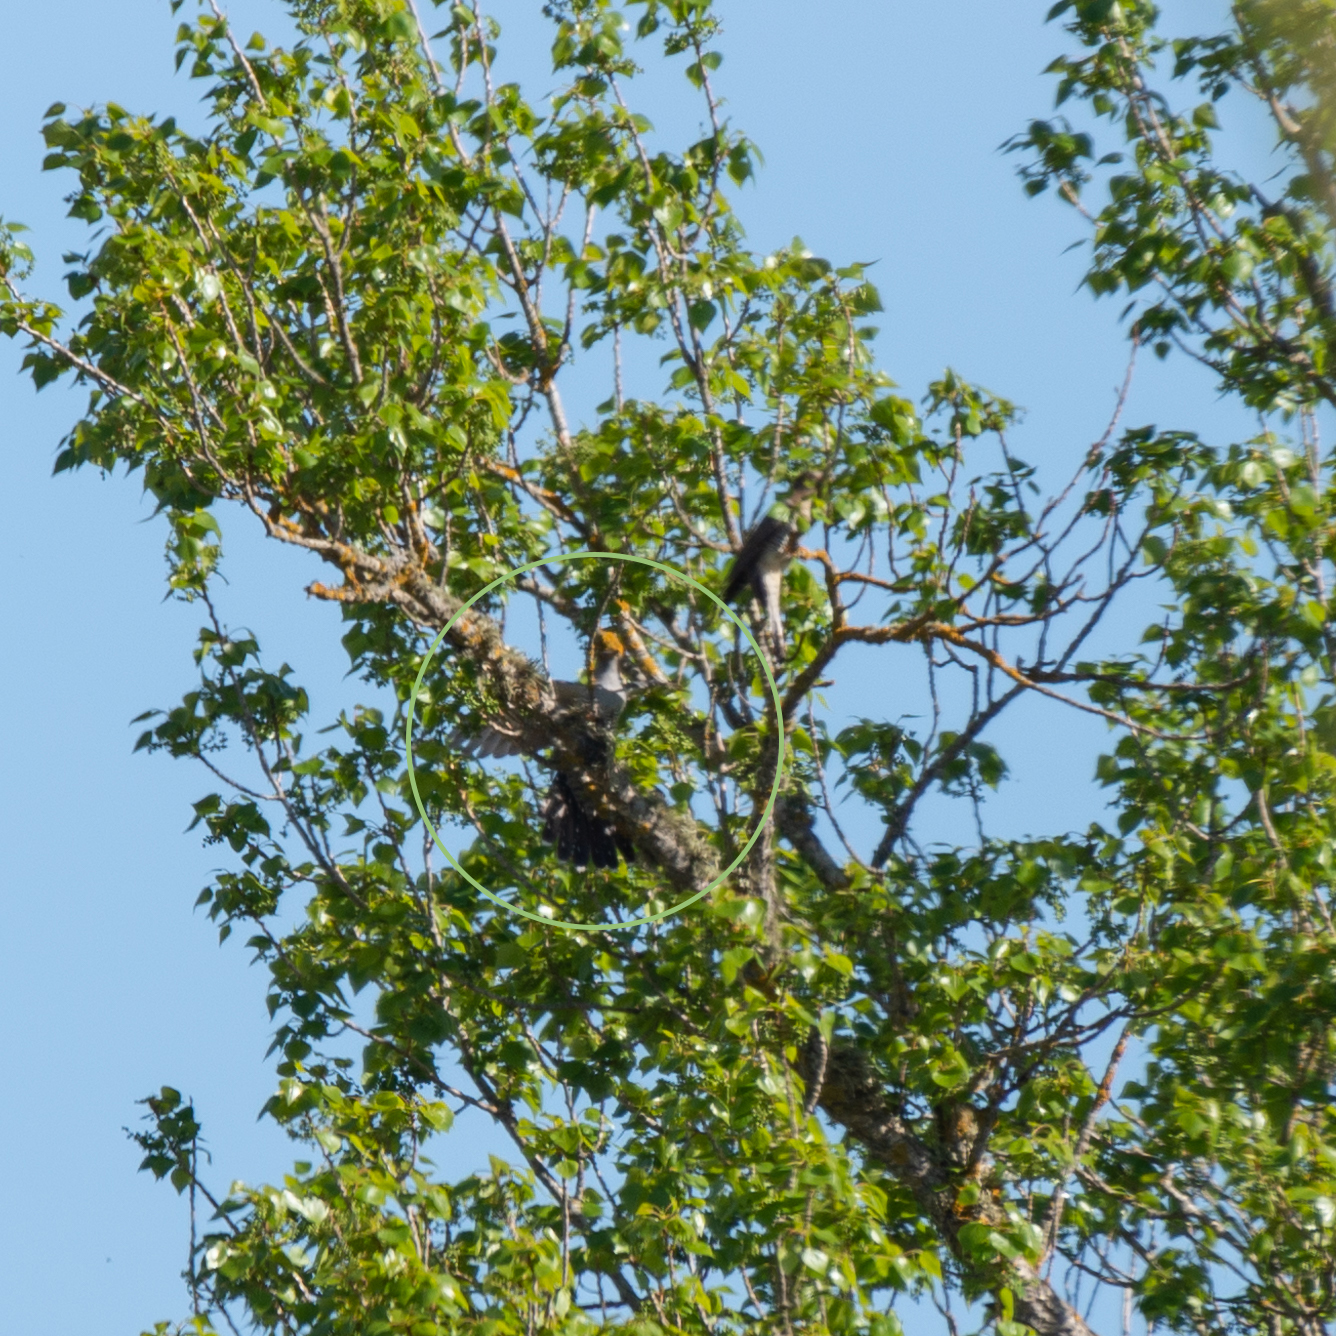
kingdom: Animalia
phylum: Chordata
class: Aves
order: Cuculiformes
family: Cuculidae
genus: Cuculus
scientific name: Cuculus canorus
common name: Common cuckoo
